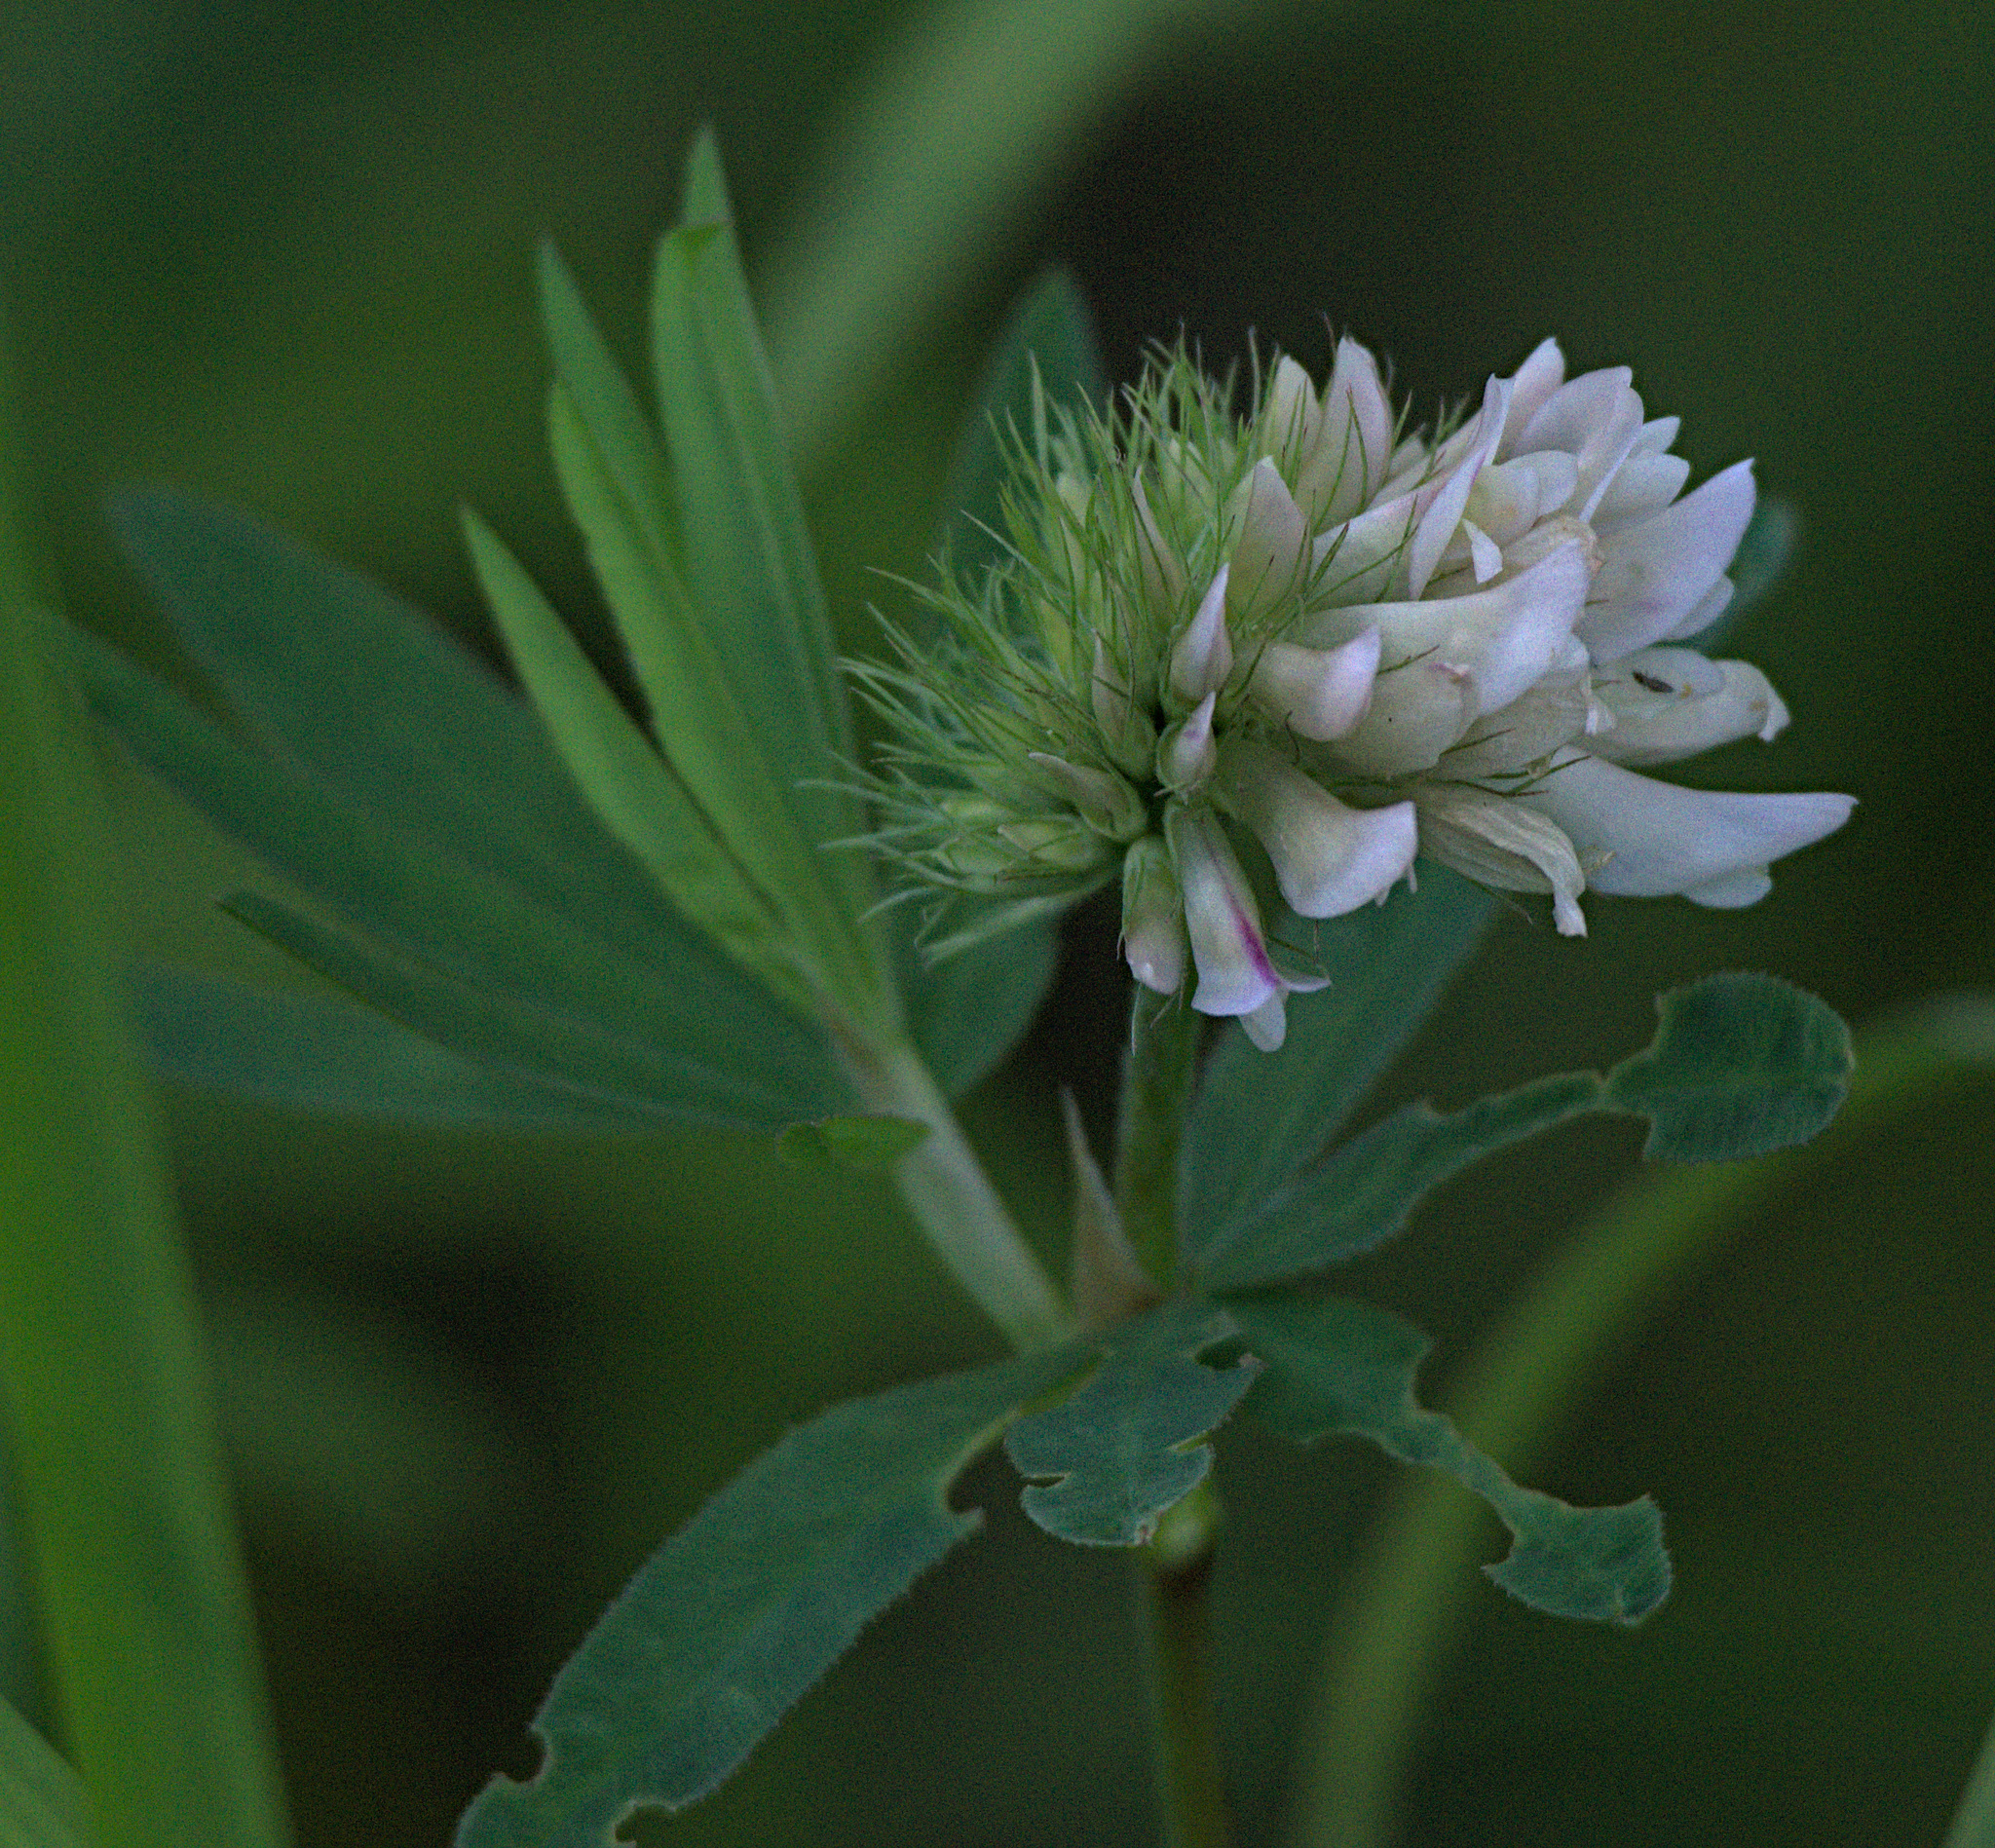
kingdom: Plantae
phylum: Tracheophyta
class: Magnoliopsida
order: Fabales
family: Fabaceae
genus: Trifolium
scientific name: Trifolium lupinaster
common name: Lupine clover
